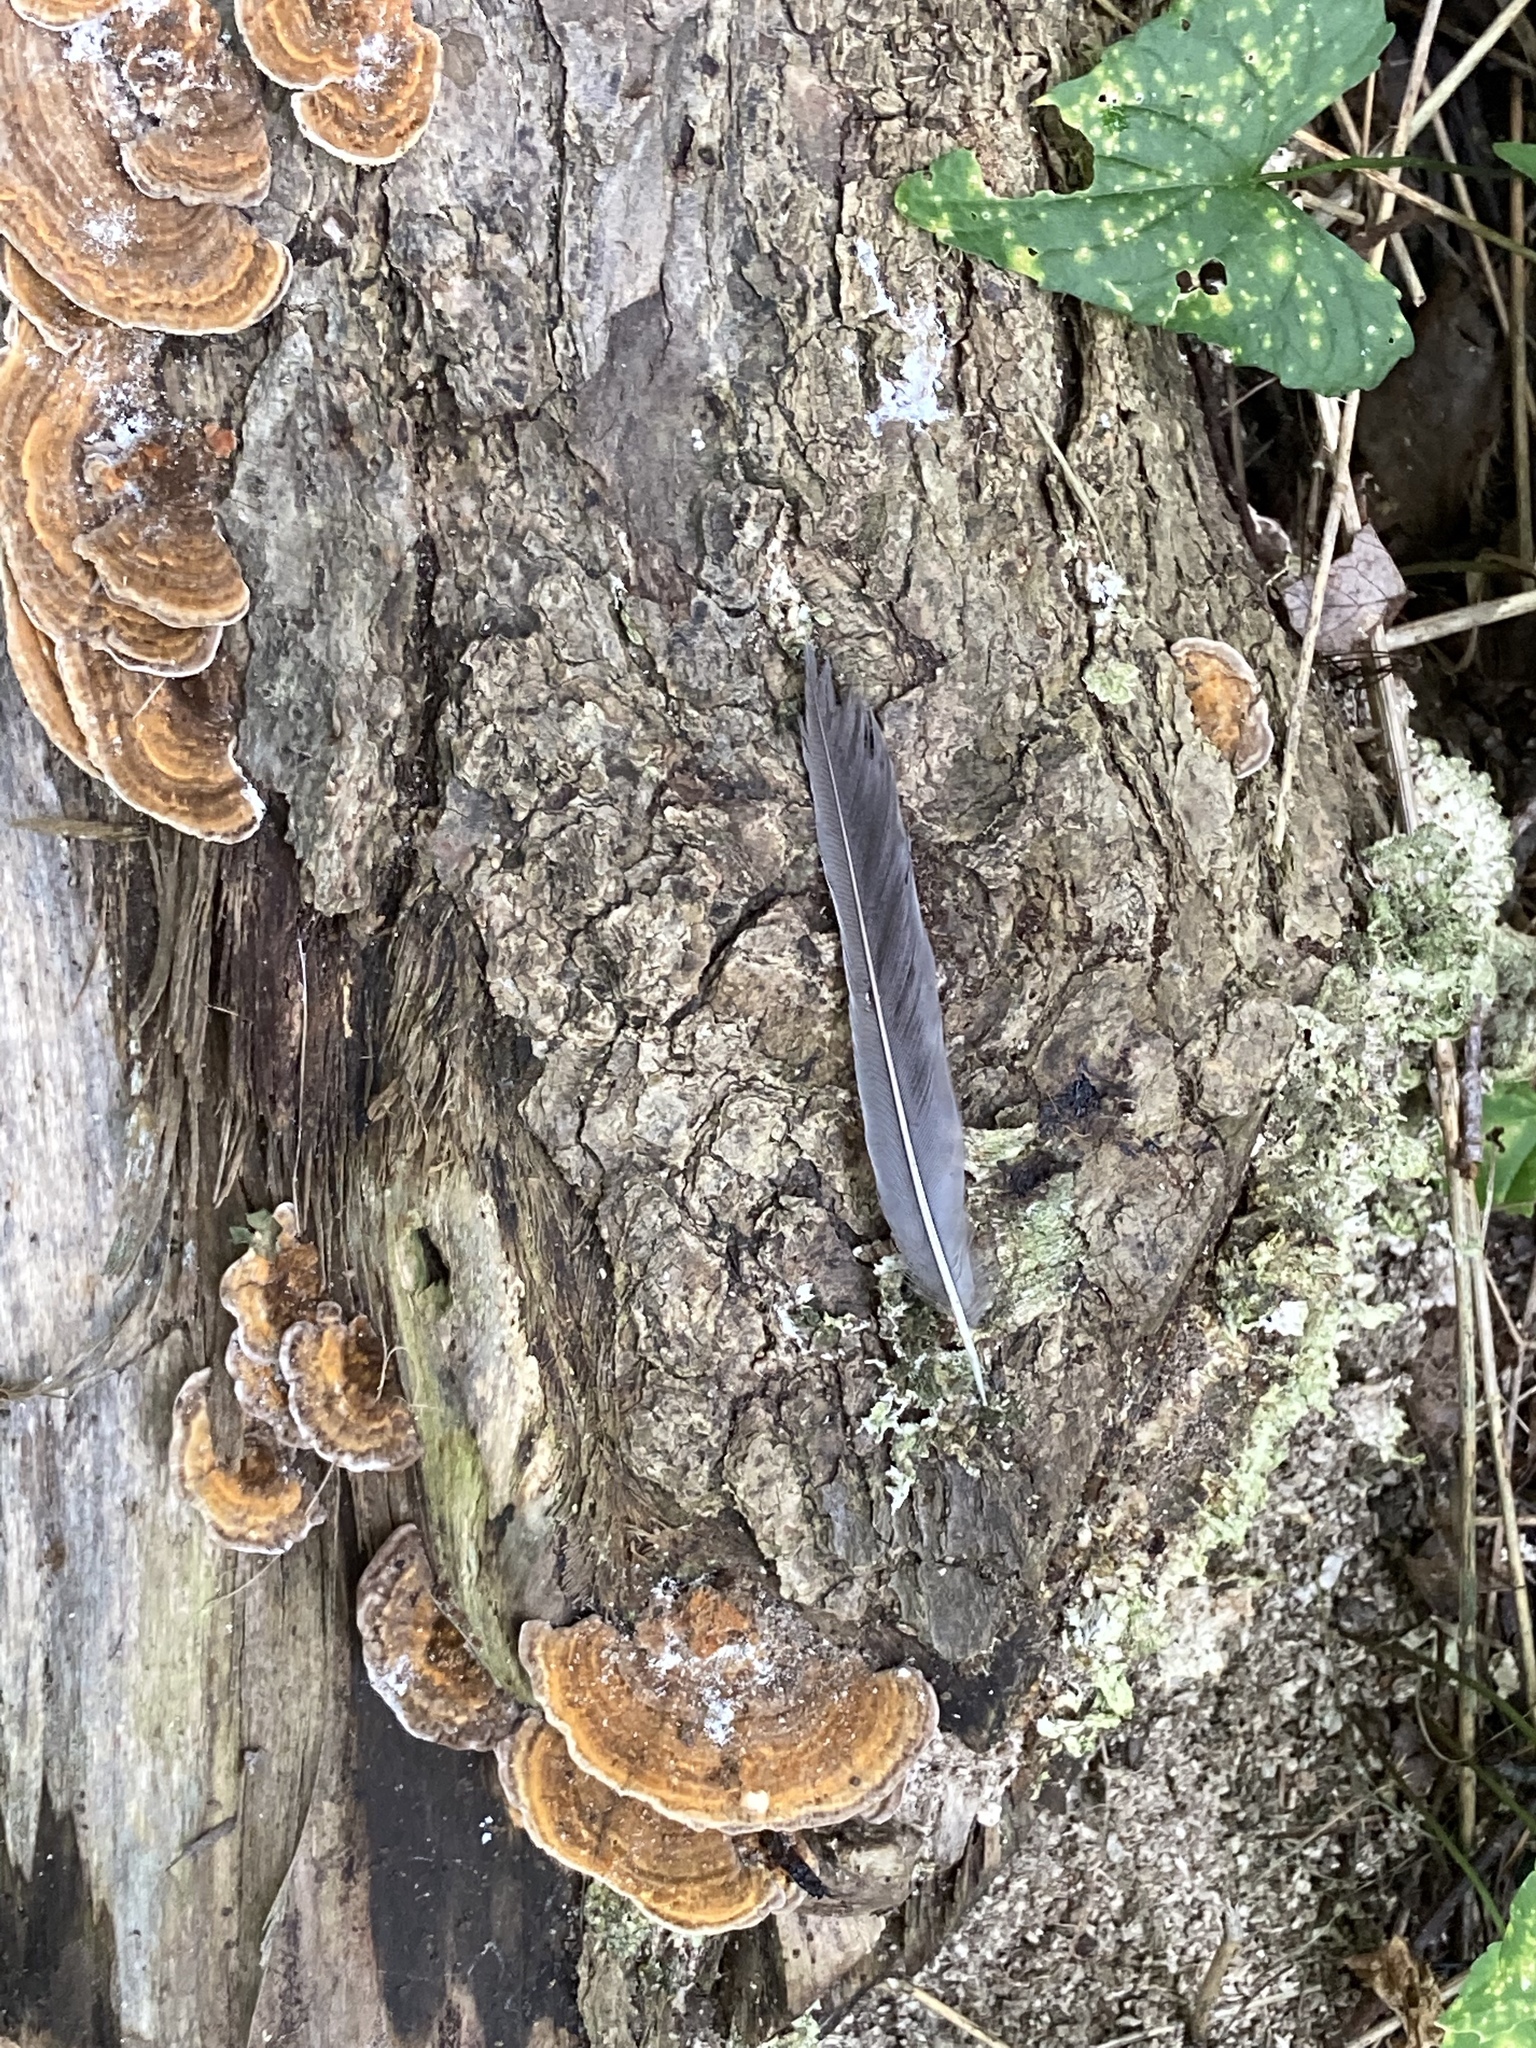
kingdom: Animalia
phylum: Chordata
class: Aves
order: Passeriformes
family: Turdidae
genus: Turdus
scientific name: Turdus migratorius
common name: American robin
